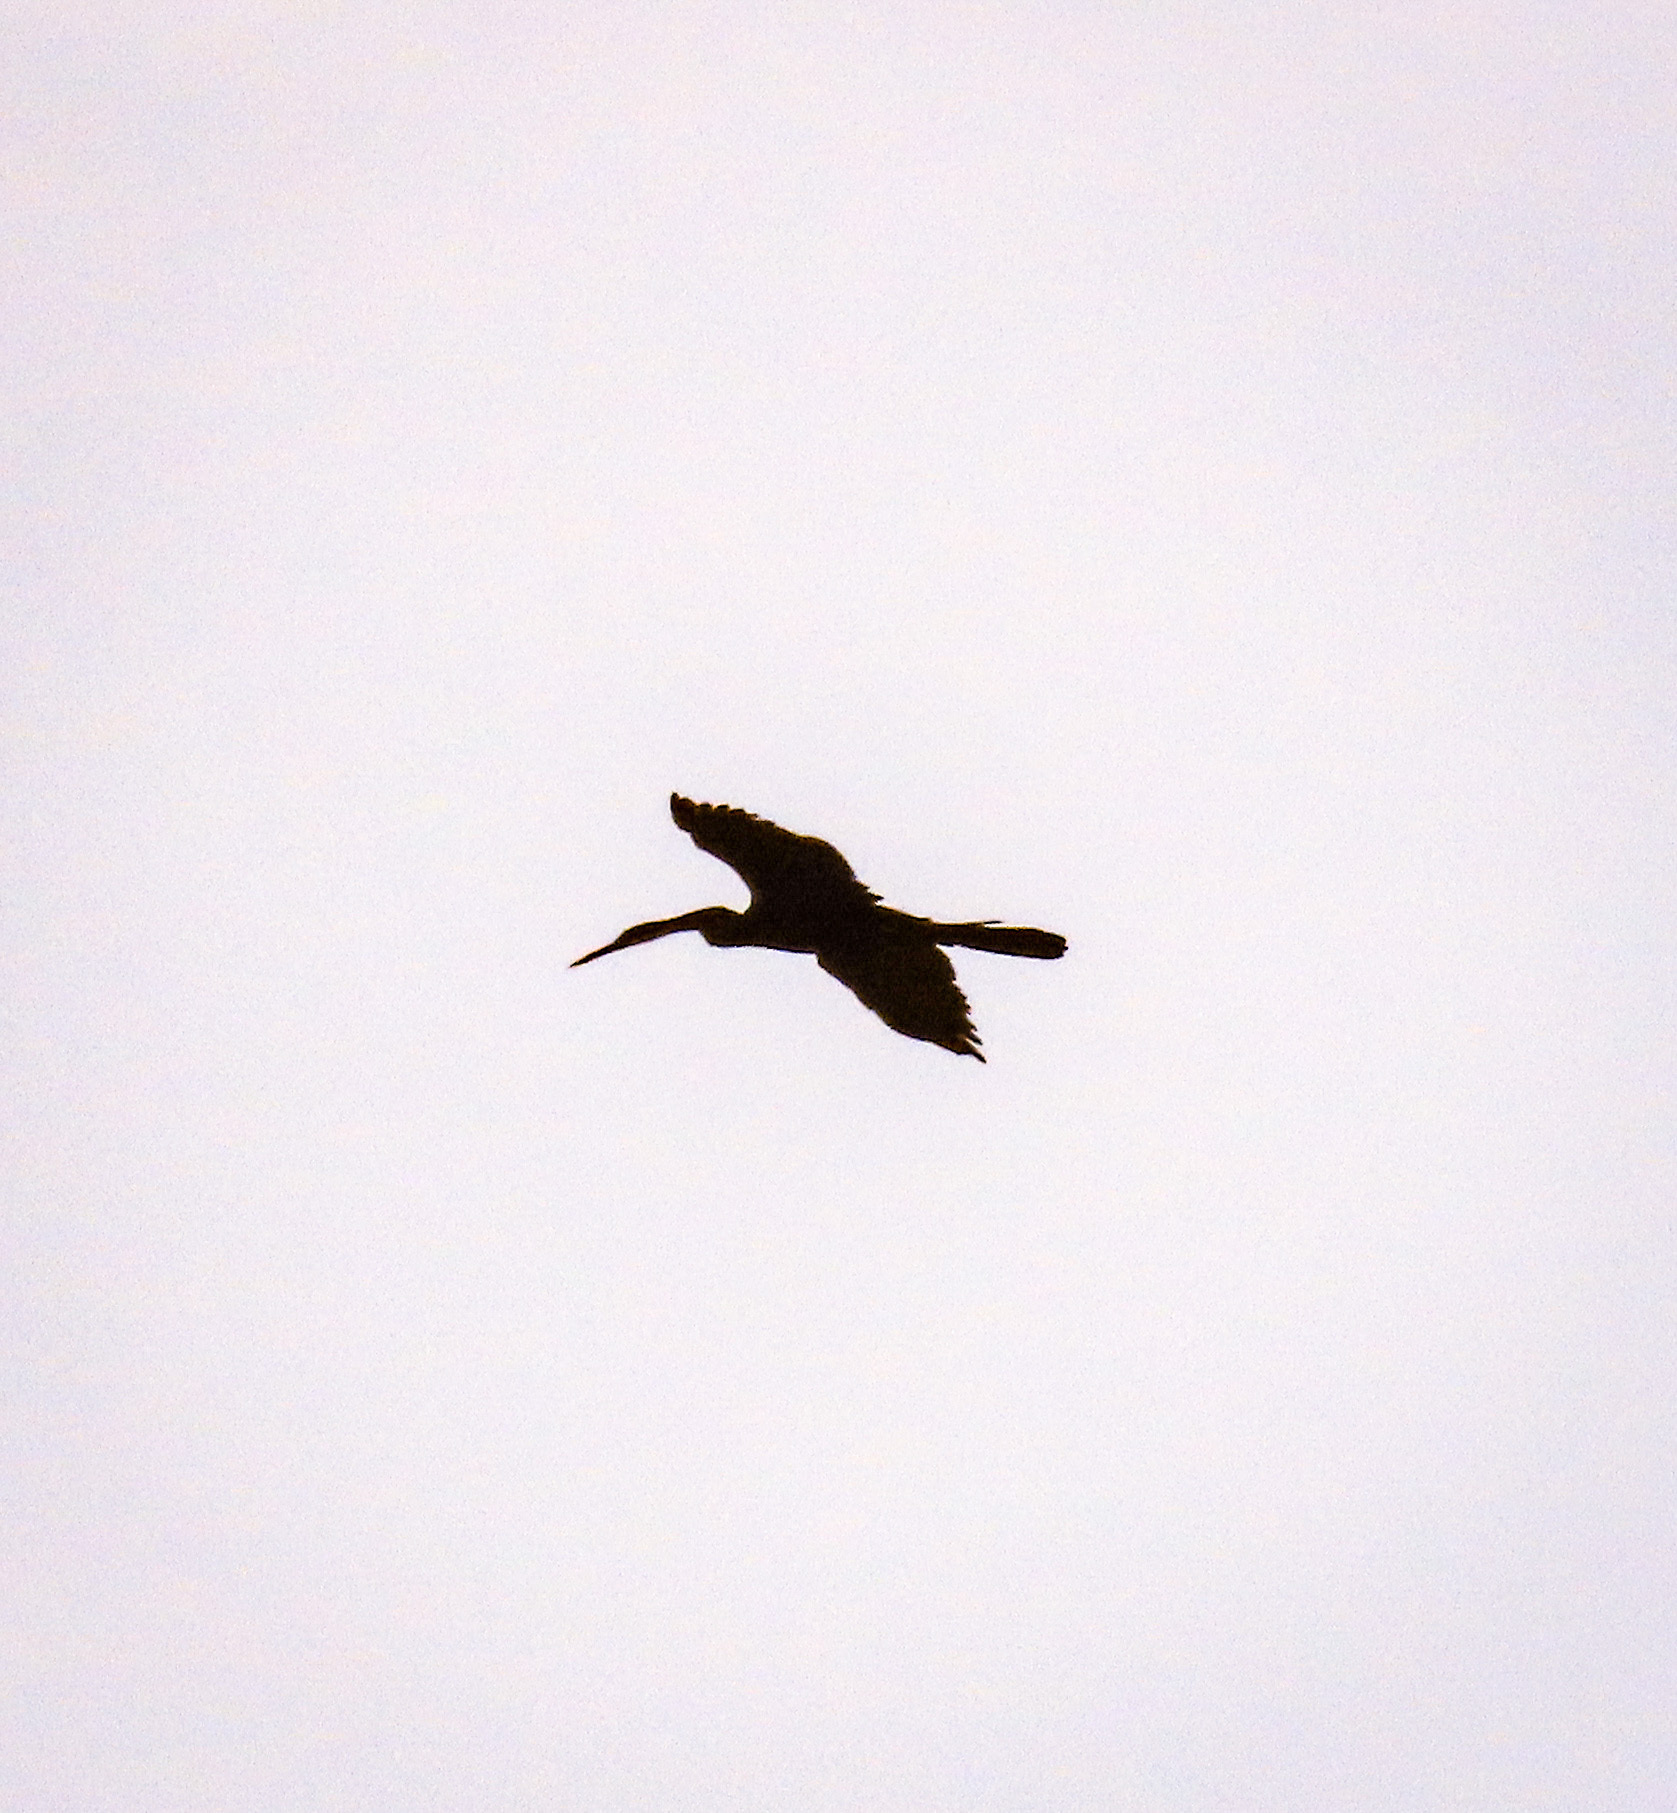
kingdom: Animalia
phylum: Chordata
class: Aves
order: Suliformes
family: Anhingidae
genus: Anhinga
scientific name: Anhinga melanogaster
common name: Oriental darter
